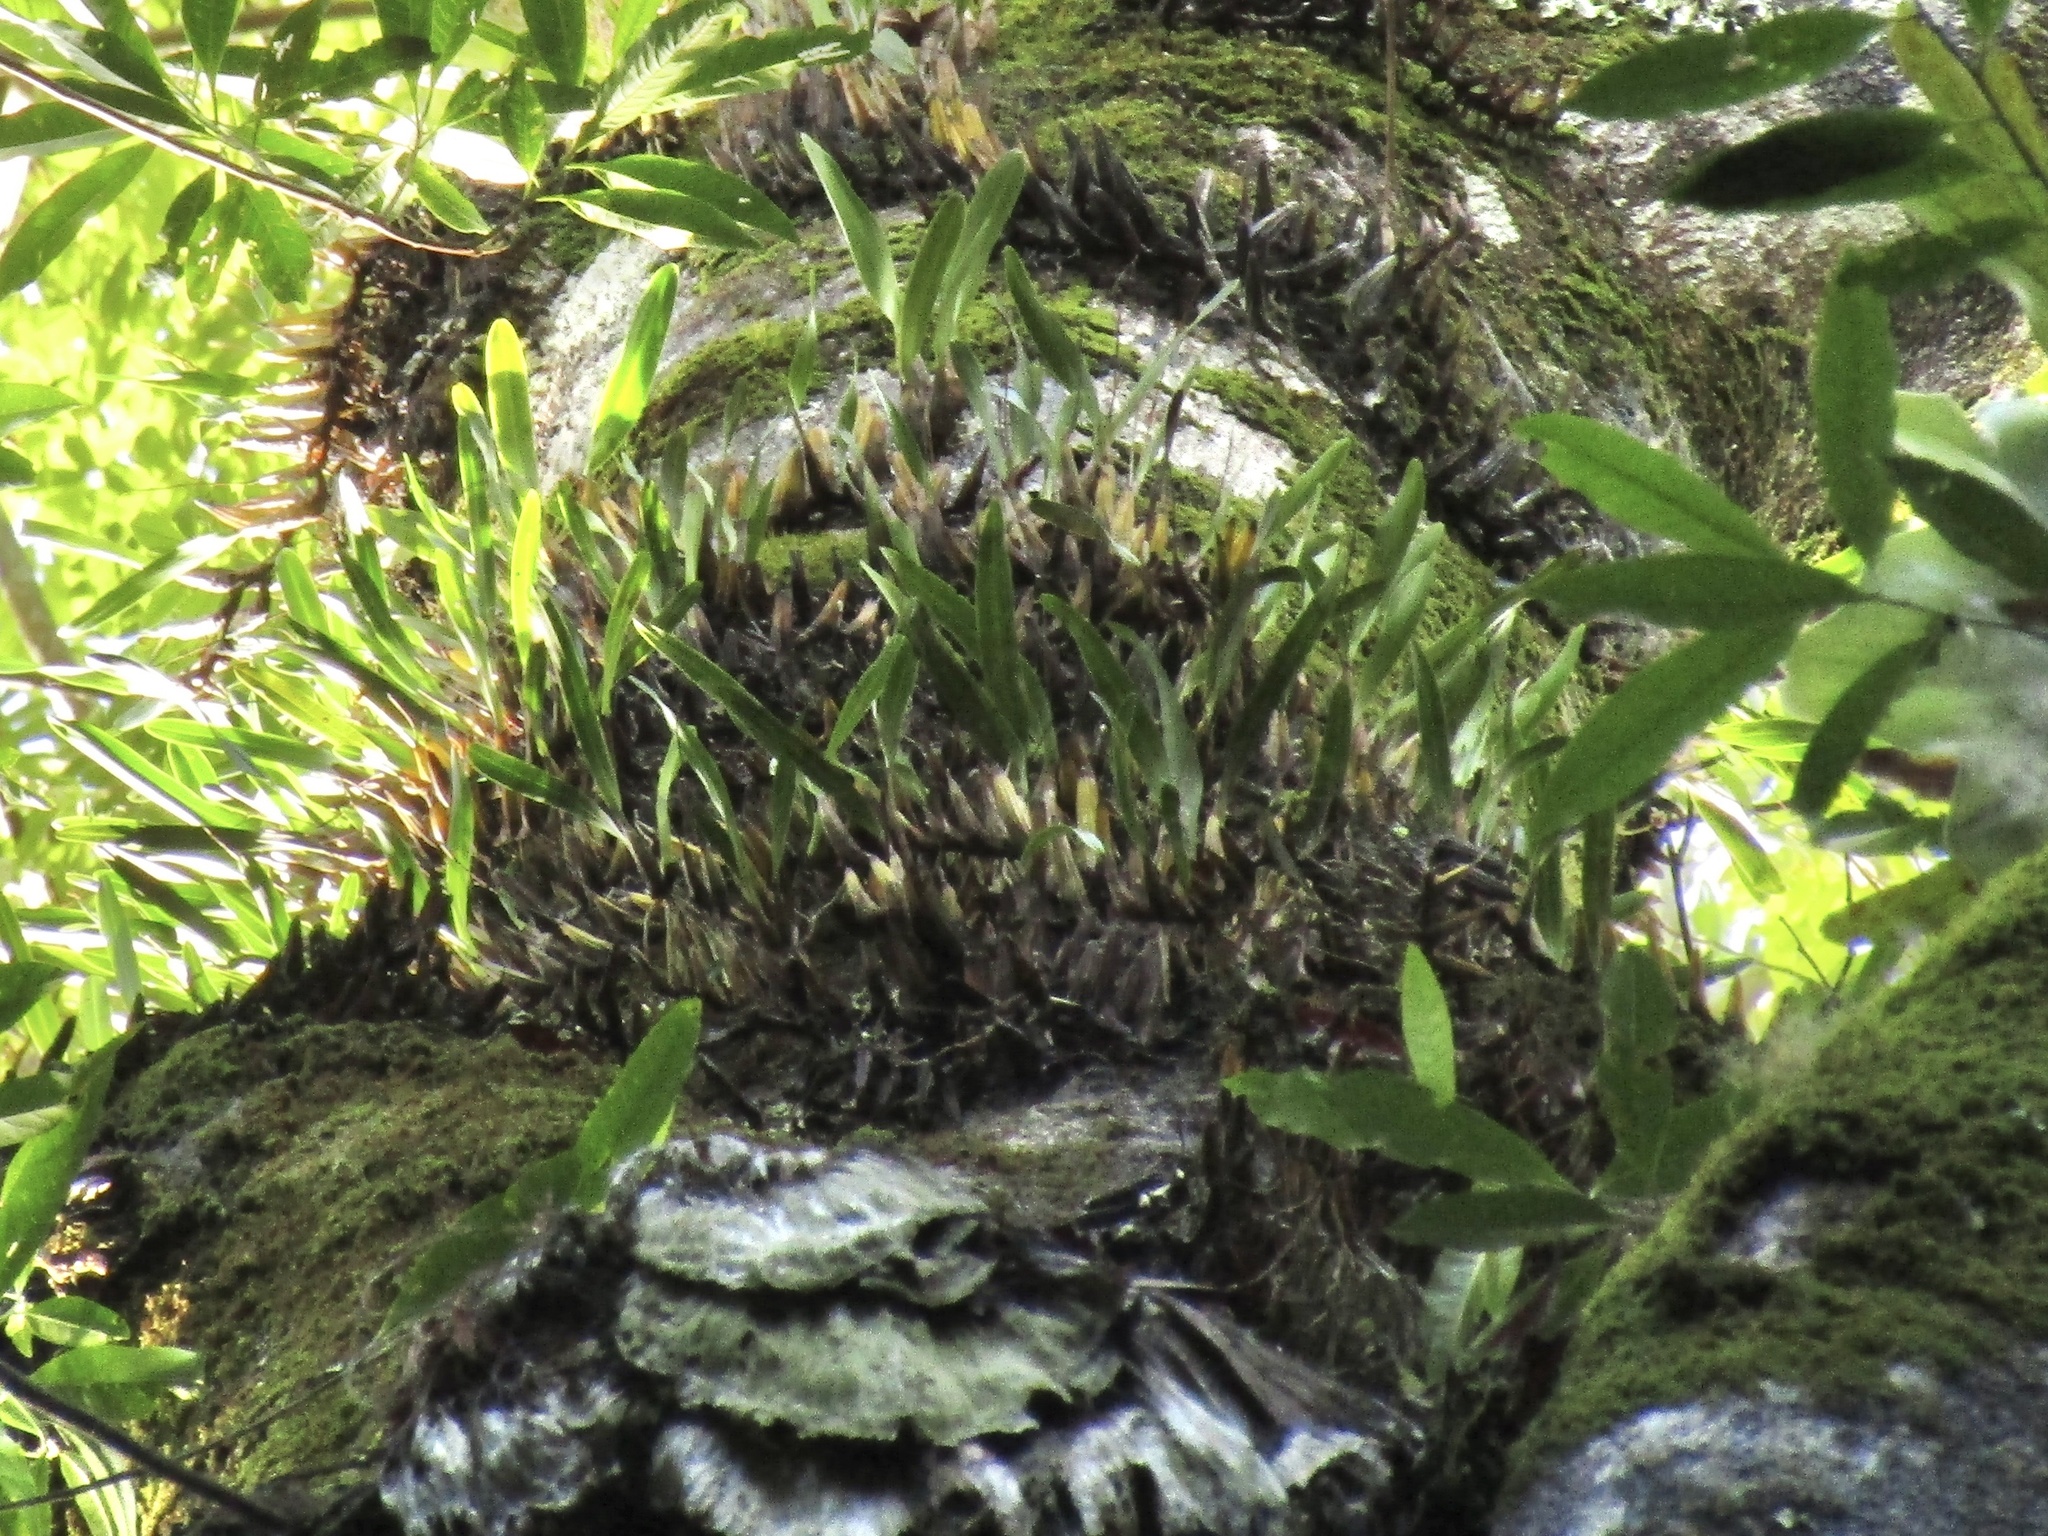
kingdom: Plantae
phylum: Tracheophyta
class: Liliopsida
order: Asparagales
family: Orchidaceae
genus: Dendrobium
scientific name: Dendrobium monophyllum
